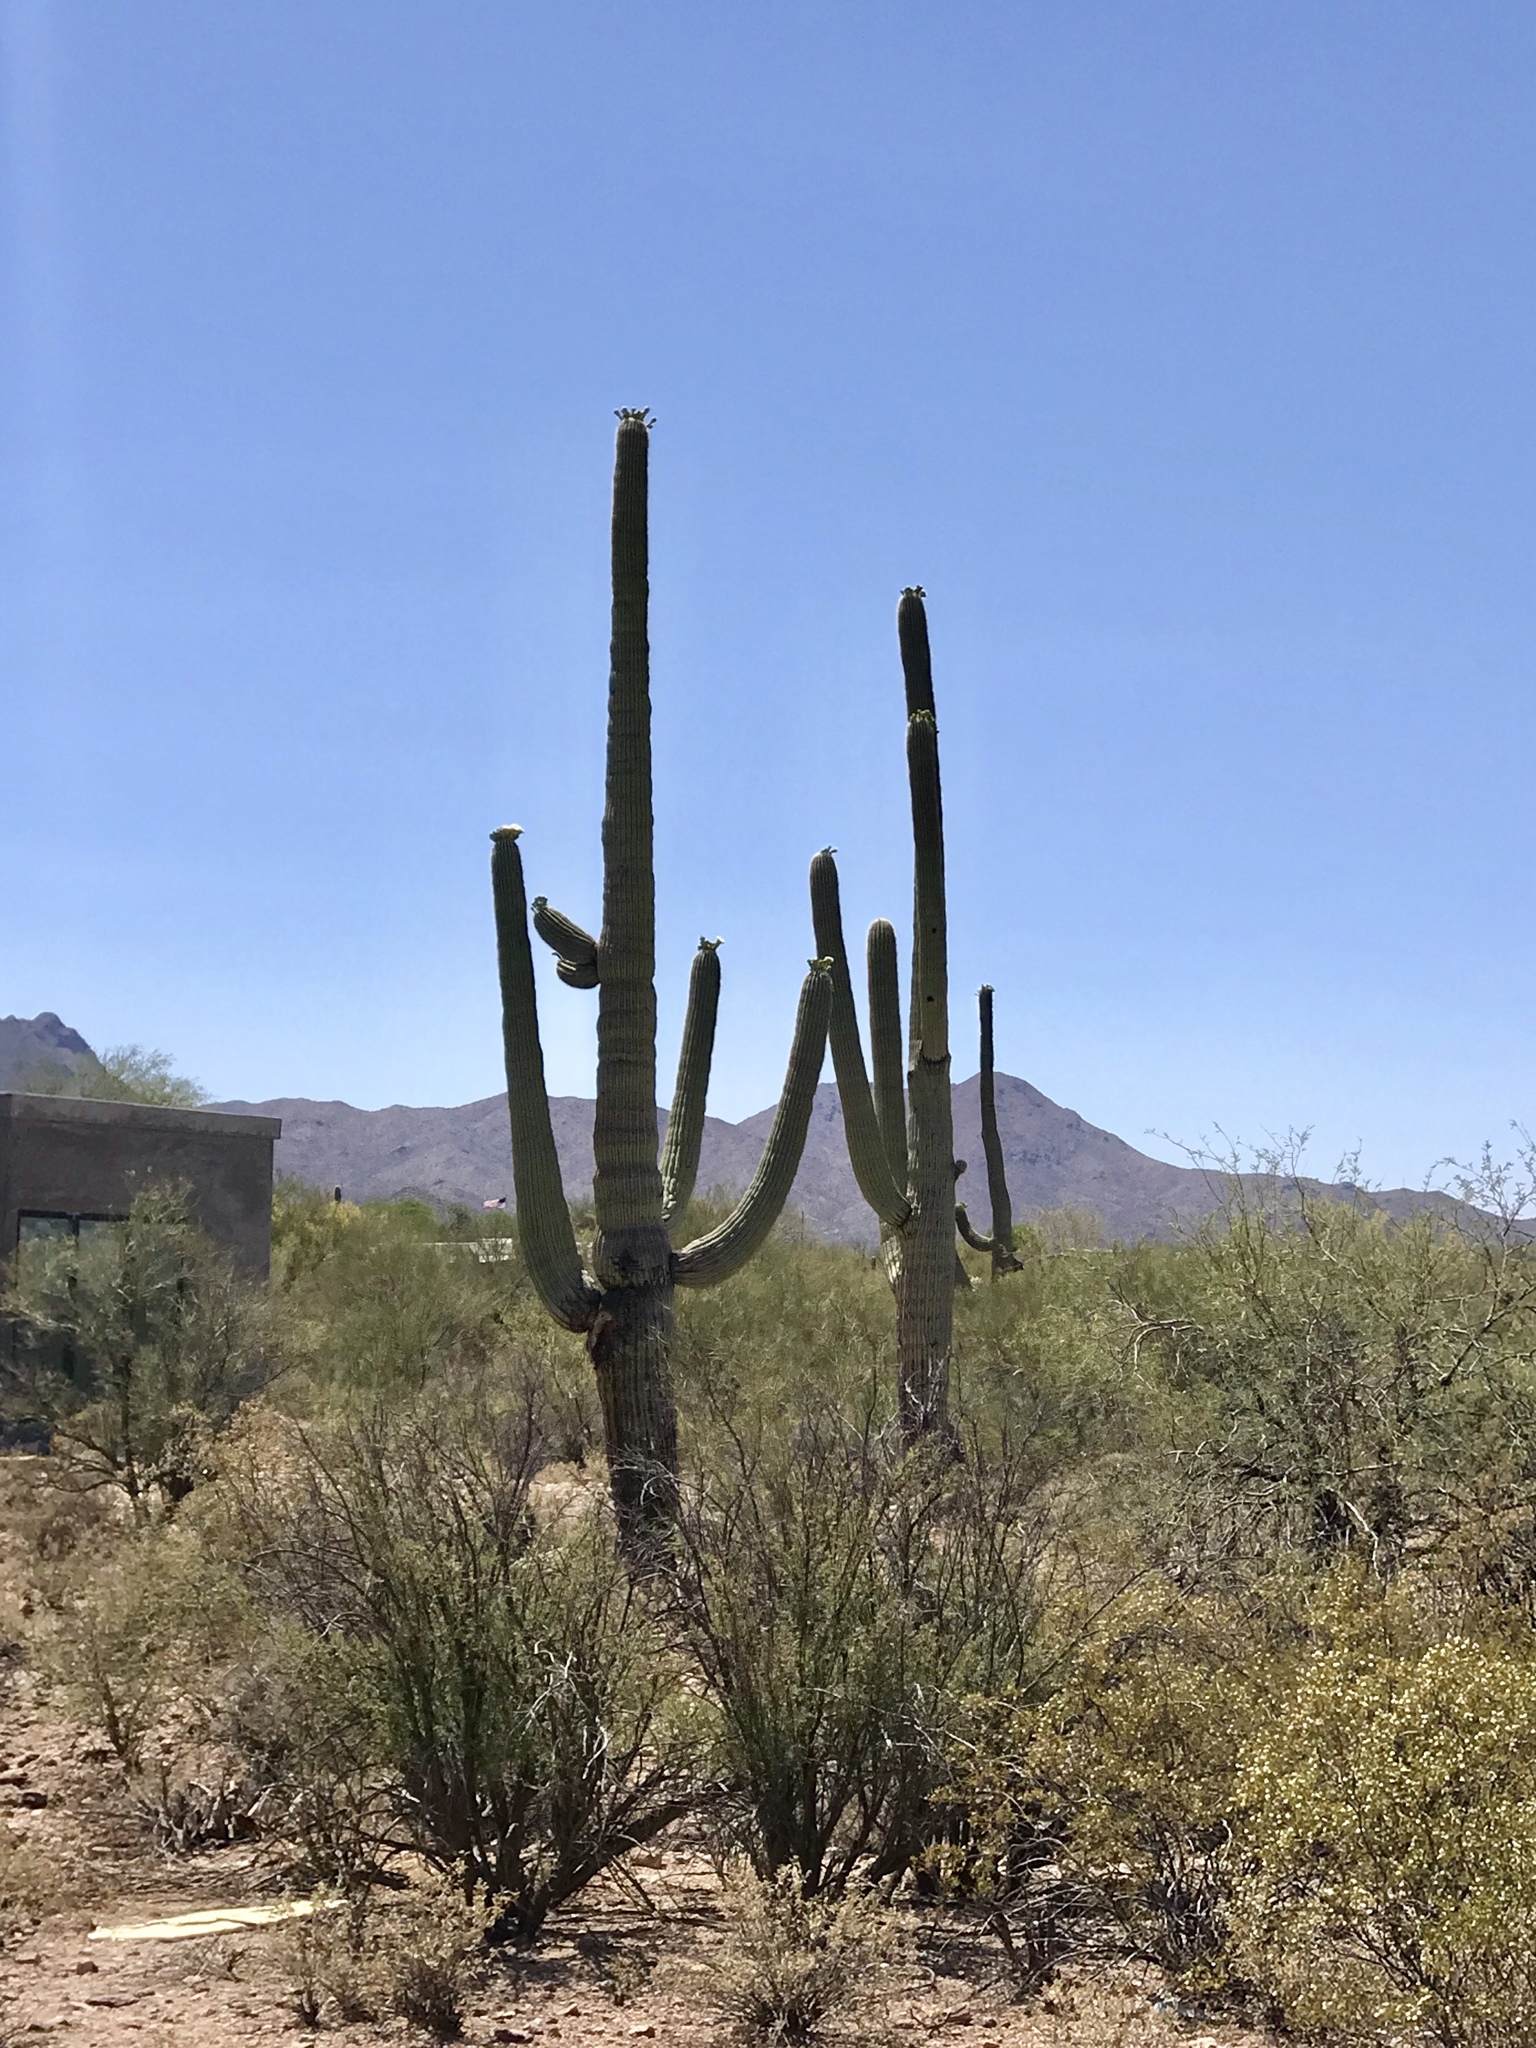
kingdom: Plantae
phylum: Tracheophyta
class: Magnoliopsida
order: Caryophyllales
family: Cactaceae
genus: Carnegiea
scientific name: Carnegiea gigantea
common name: Saguaro
